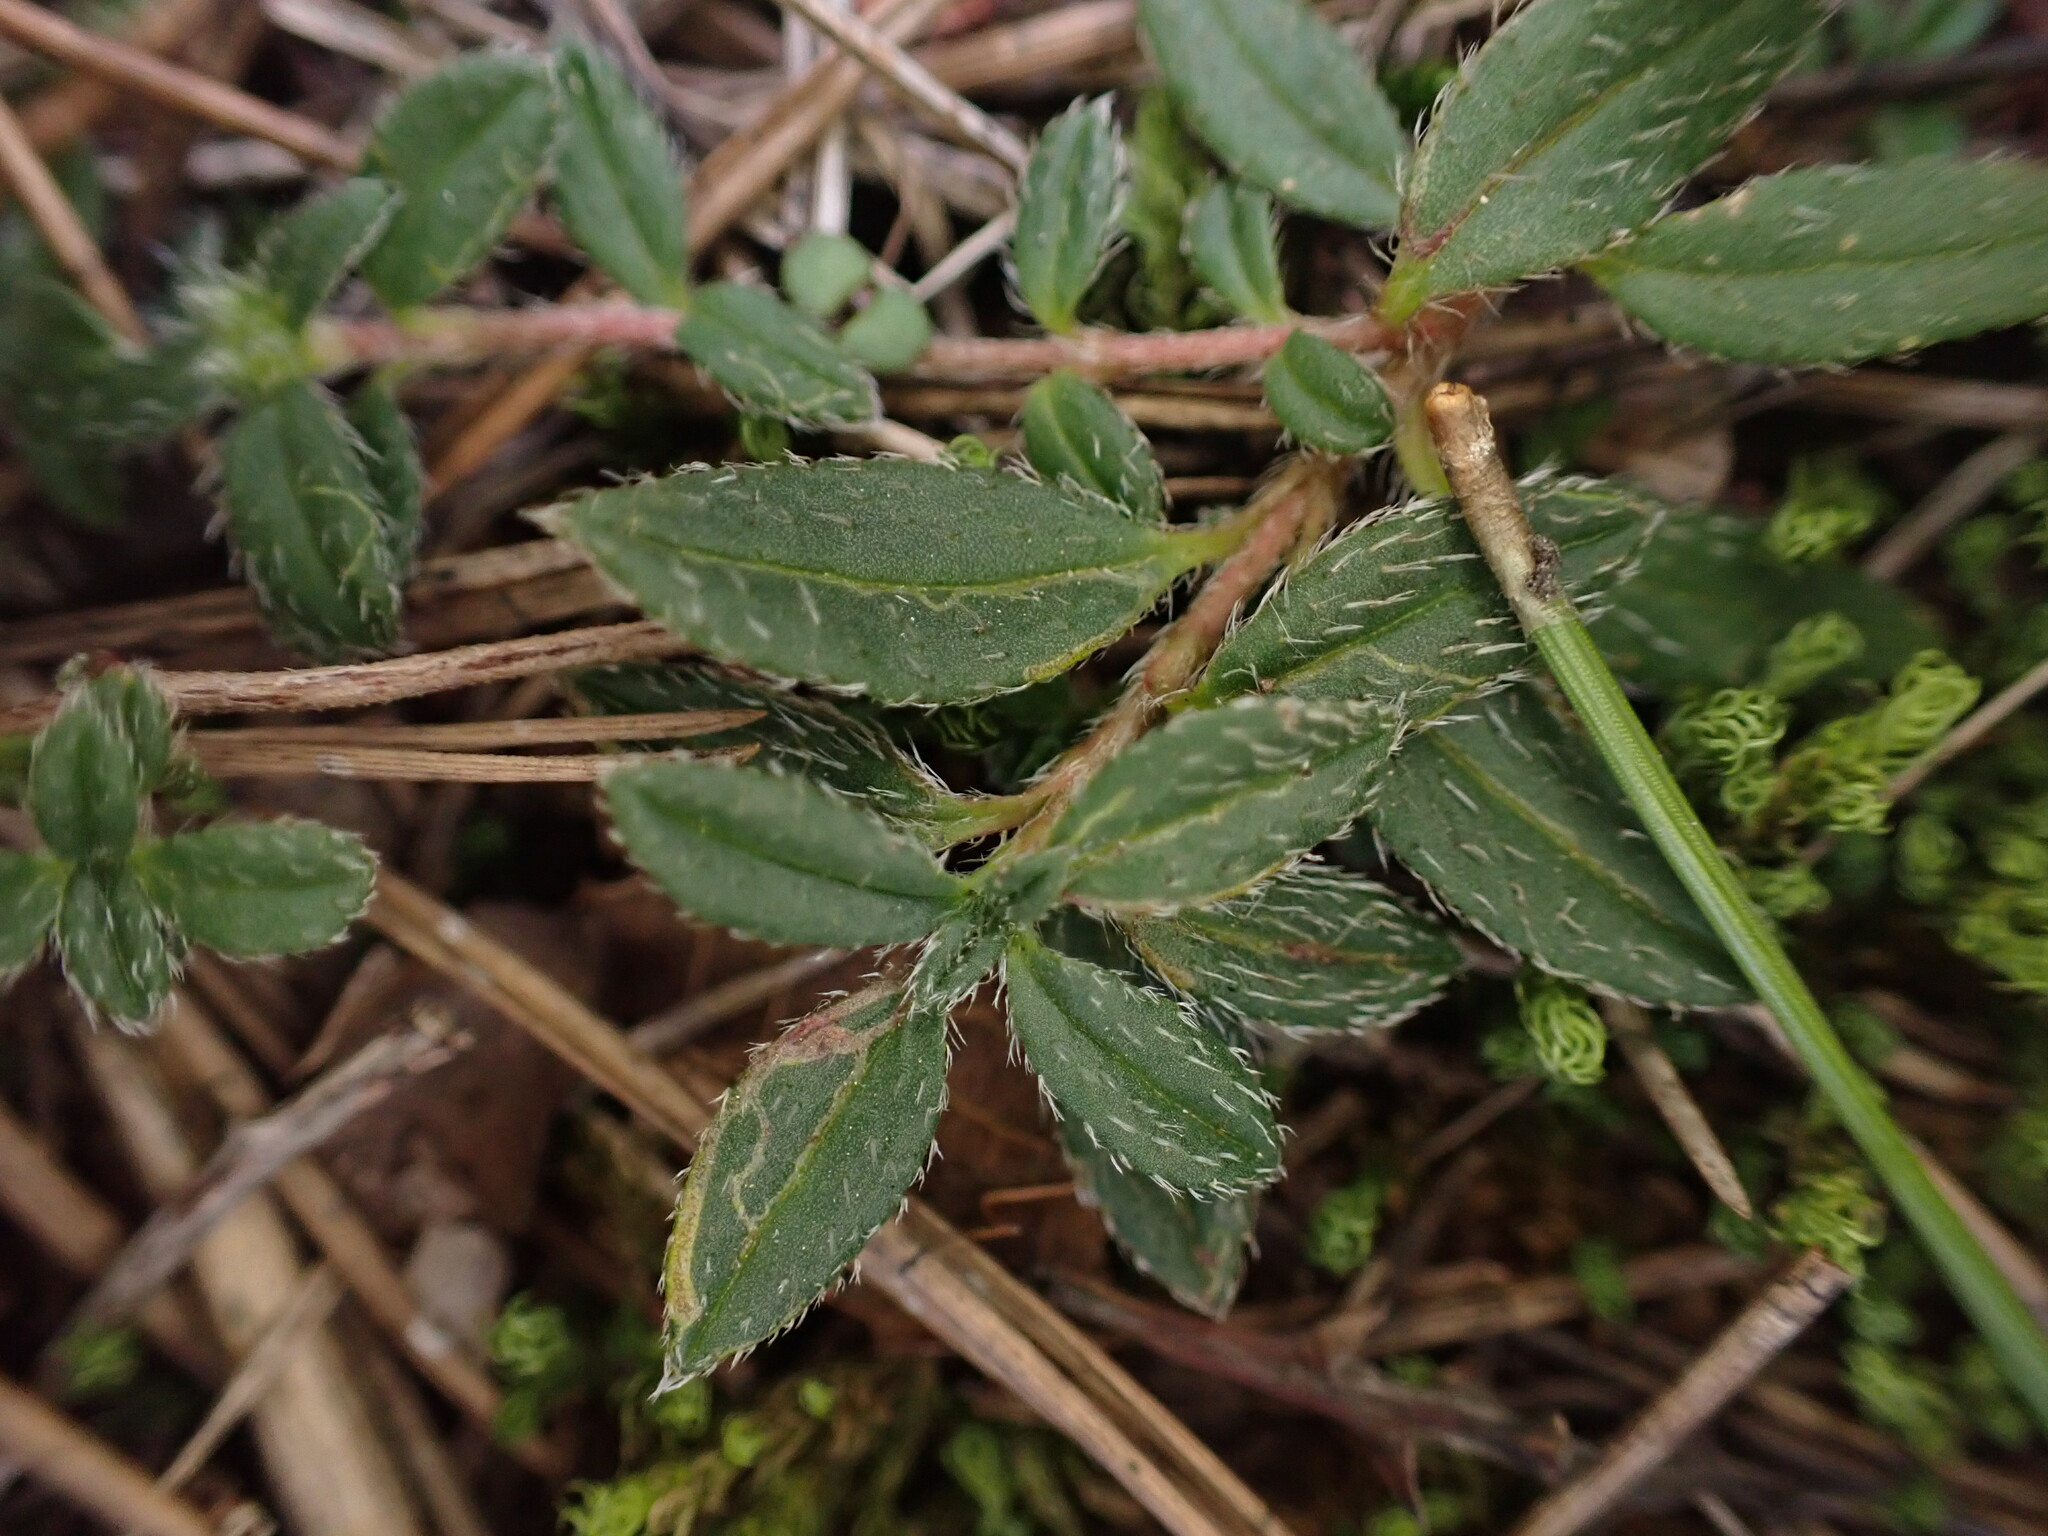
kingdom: Plantae
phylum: Tracheophyta
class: Magnoliopsida
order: Malvales
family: Cistaceae
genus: Helianthemum
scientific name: Helianthemum oelandicum
